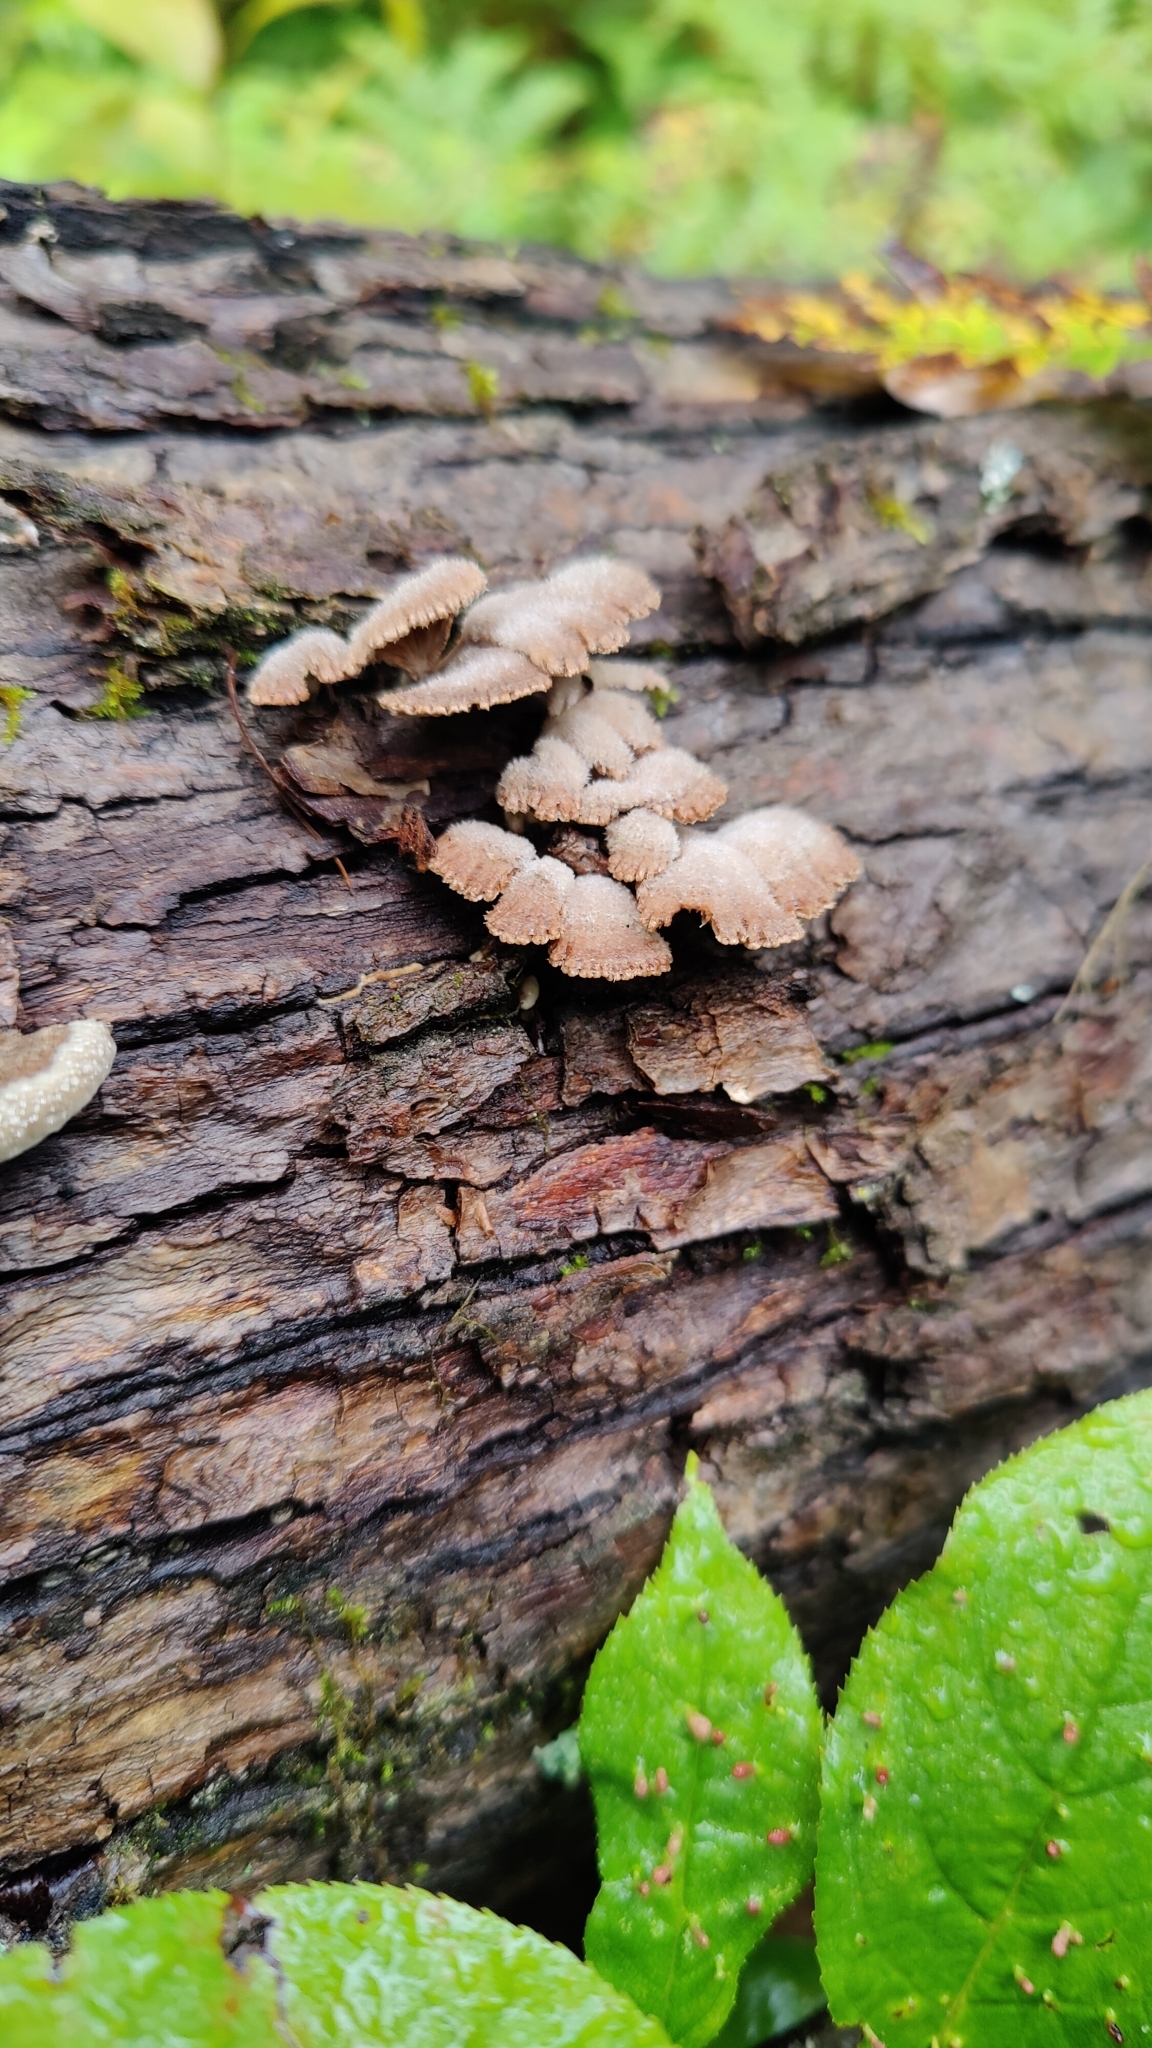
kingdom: Fungi
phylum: Basidiomycota
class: Agaricomycetes
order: Agaricales
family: Schizophyllaceae
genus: Schizophyllum
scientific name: Schizophyllum commune
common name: Common porecrust
